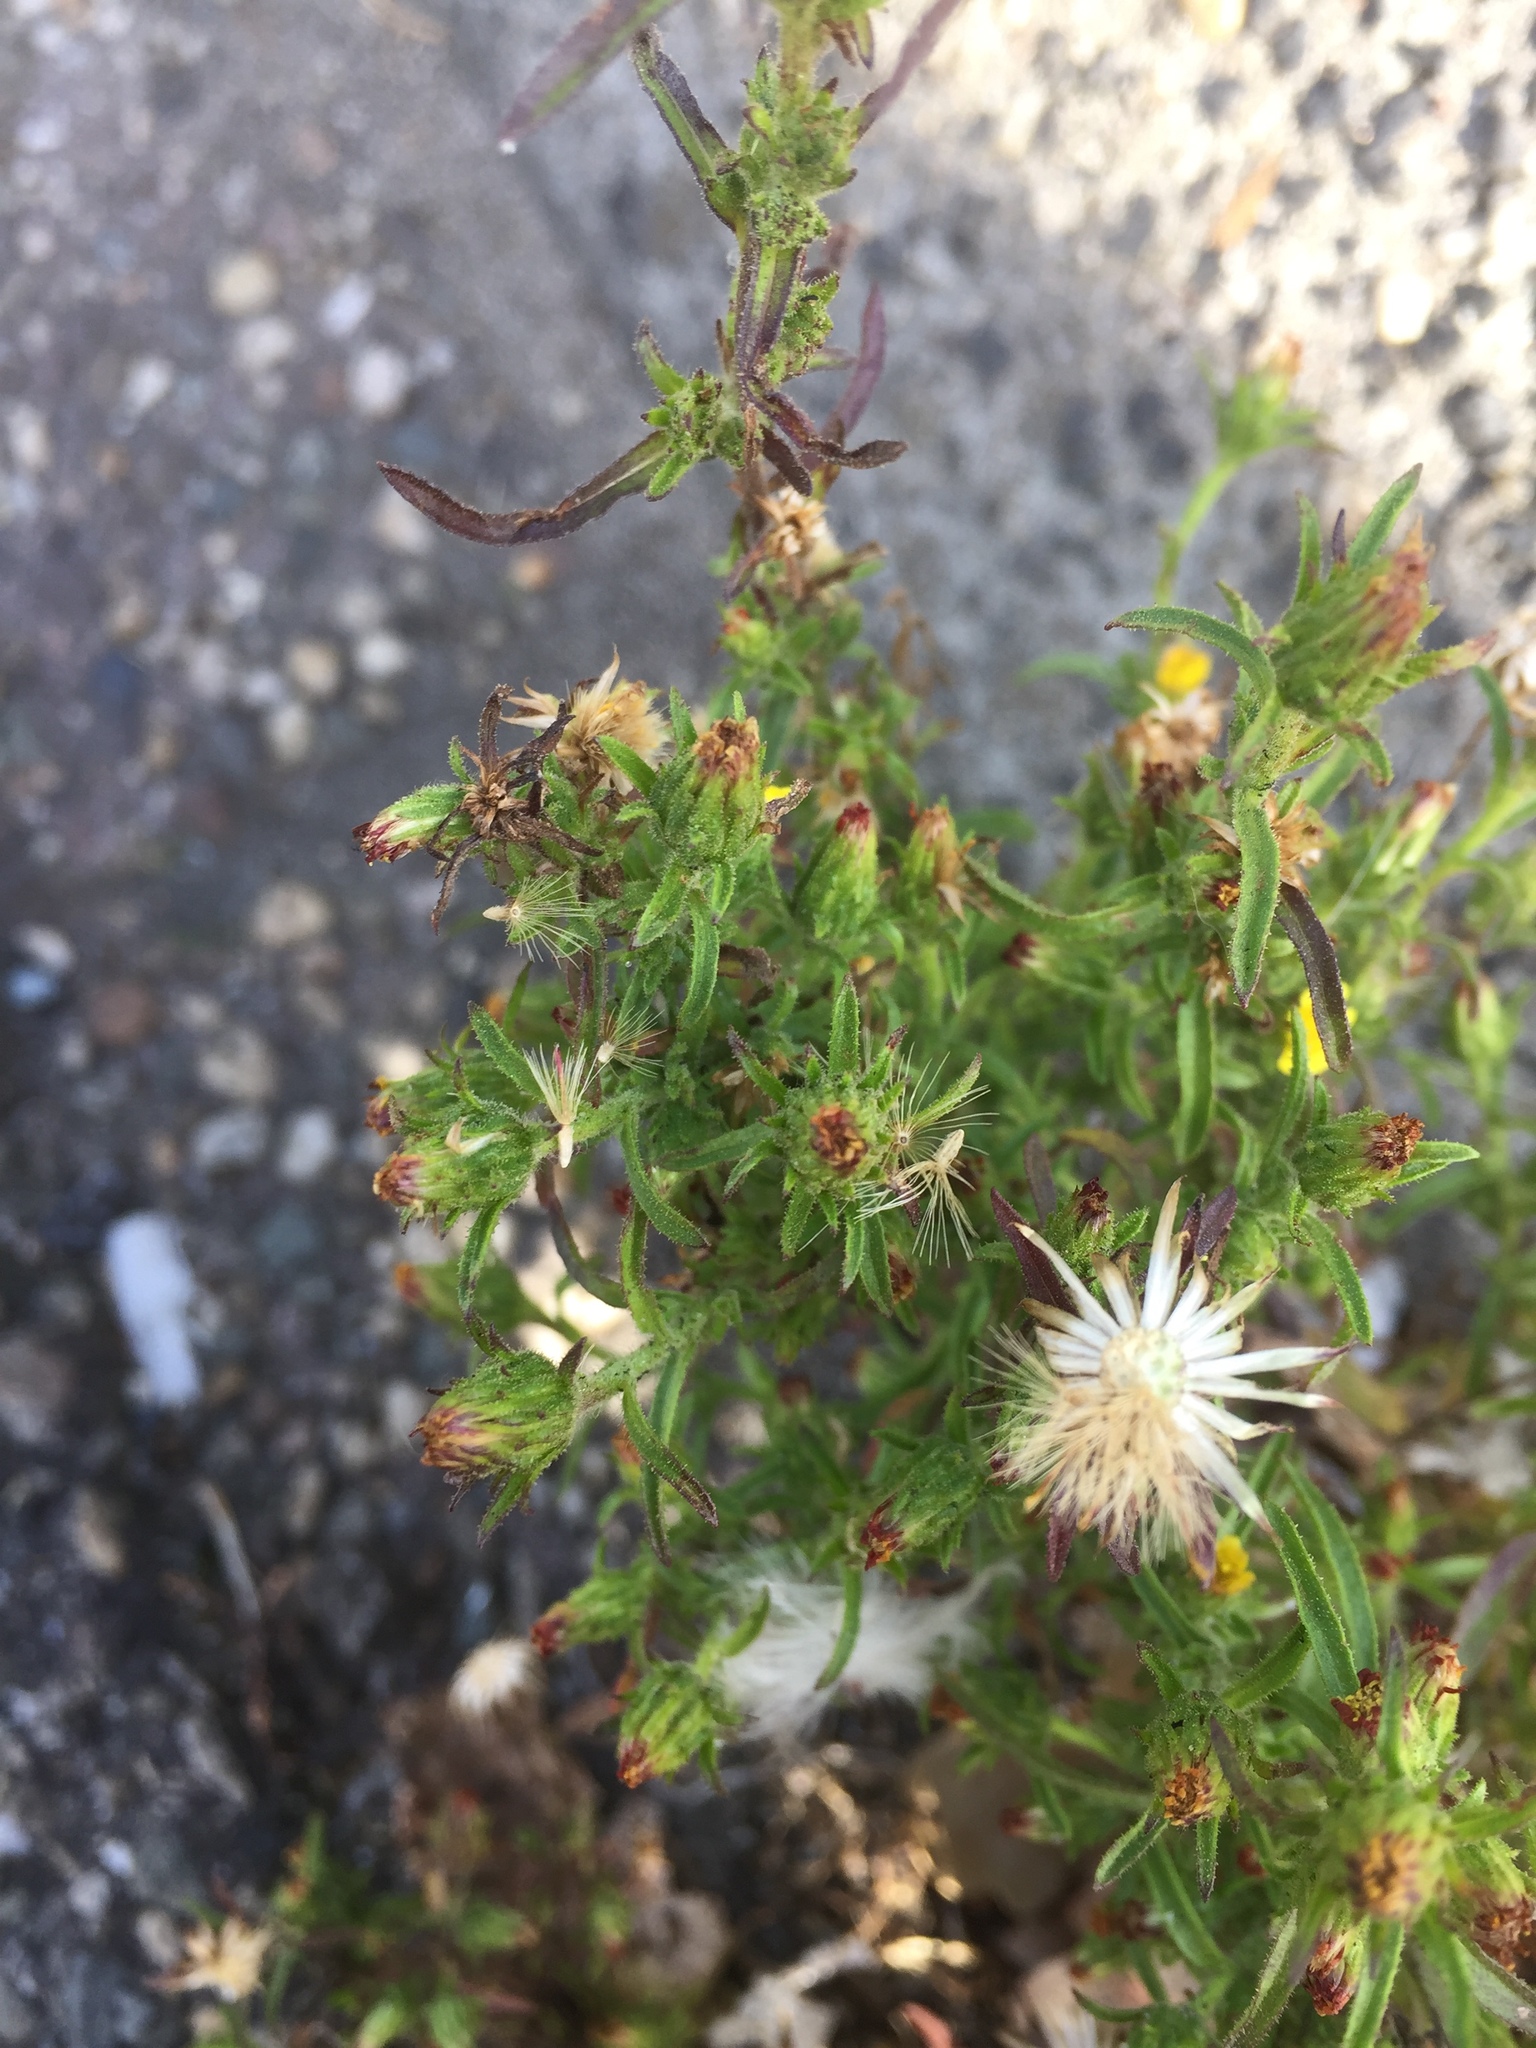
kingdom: Plantae
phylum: Tracheophyta
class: Magnoliopsida
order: Asterales
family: Asteraceae
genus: Dittrichia
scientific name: Dittrichia graveolens
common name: Stinking fleabane
